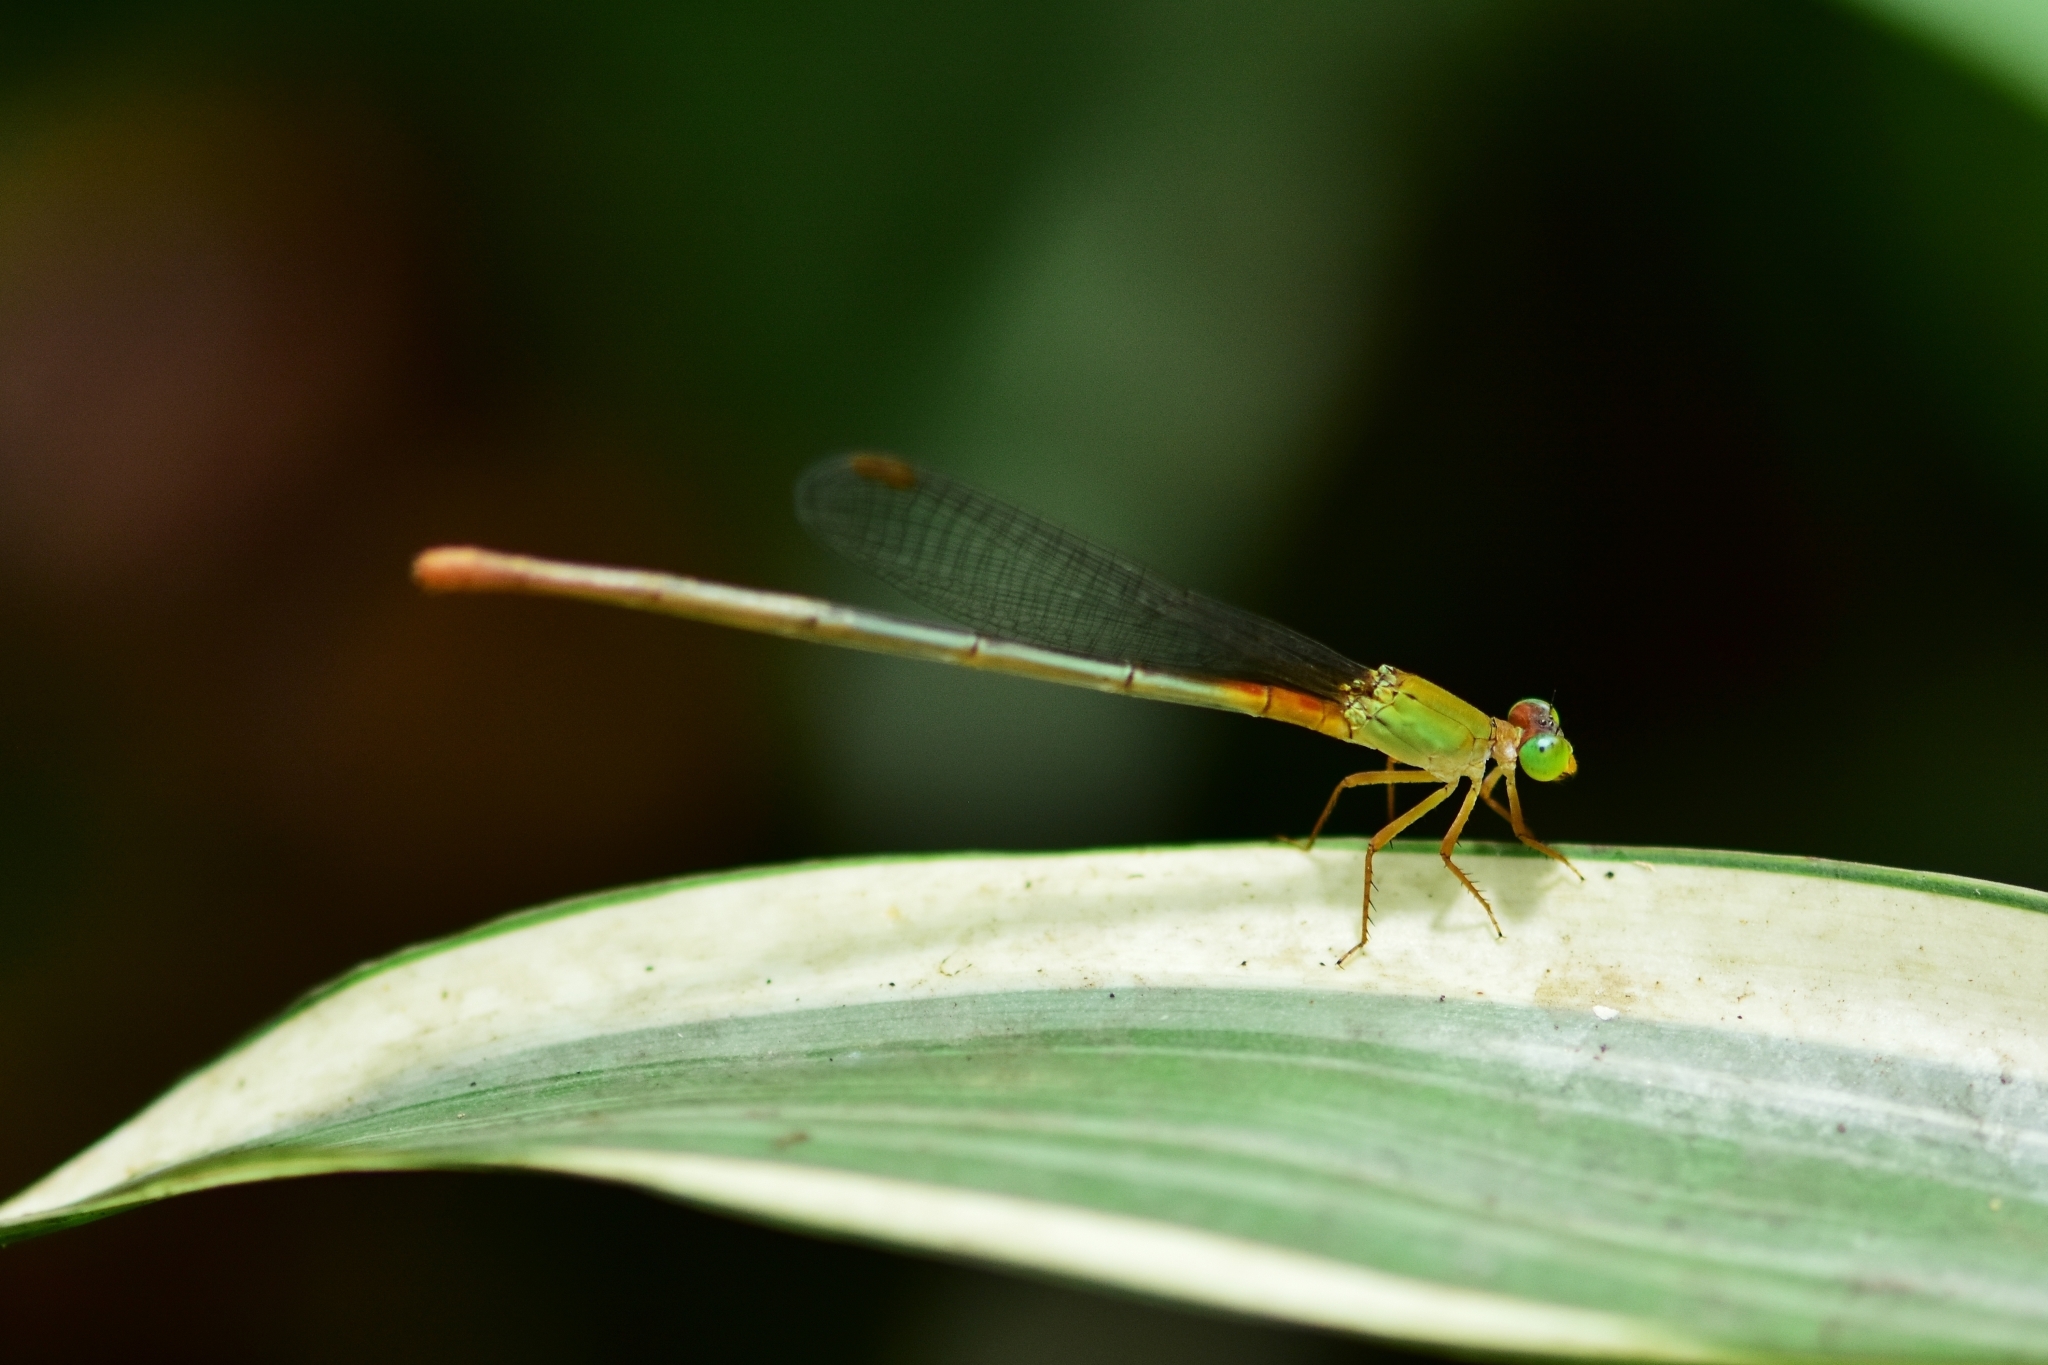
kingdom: Animalia
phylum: Arthropoda
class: Insecta
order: Odonata
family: Coenagrionidae
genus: Ceriagrion
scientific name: Ceriagrion cerinorubellum
